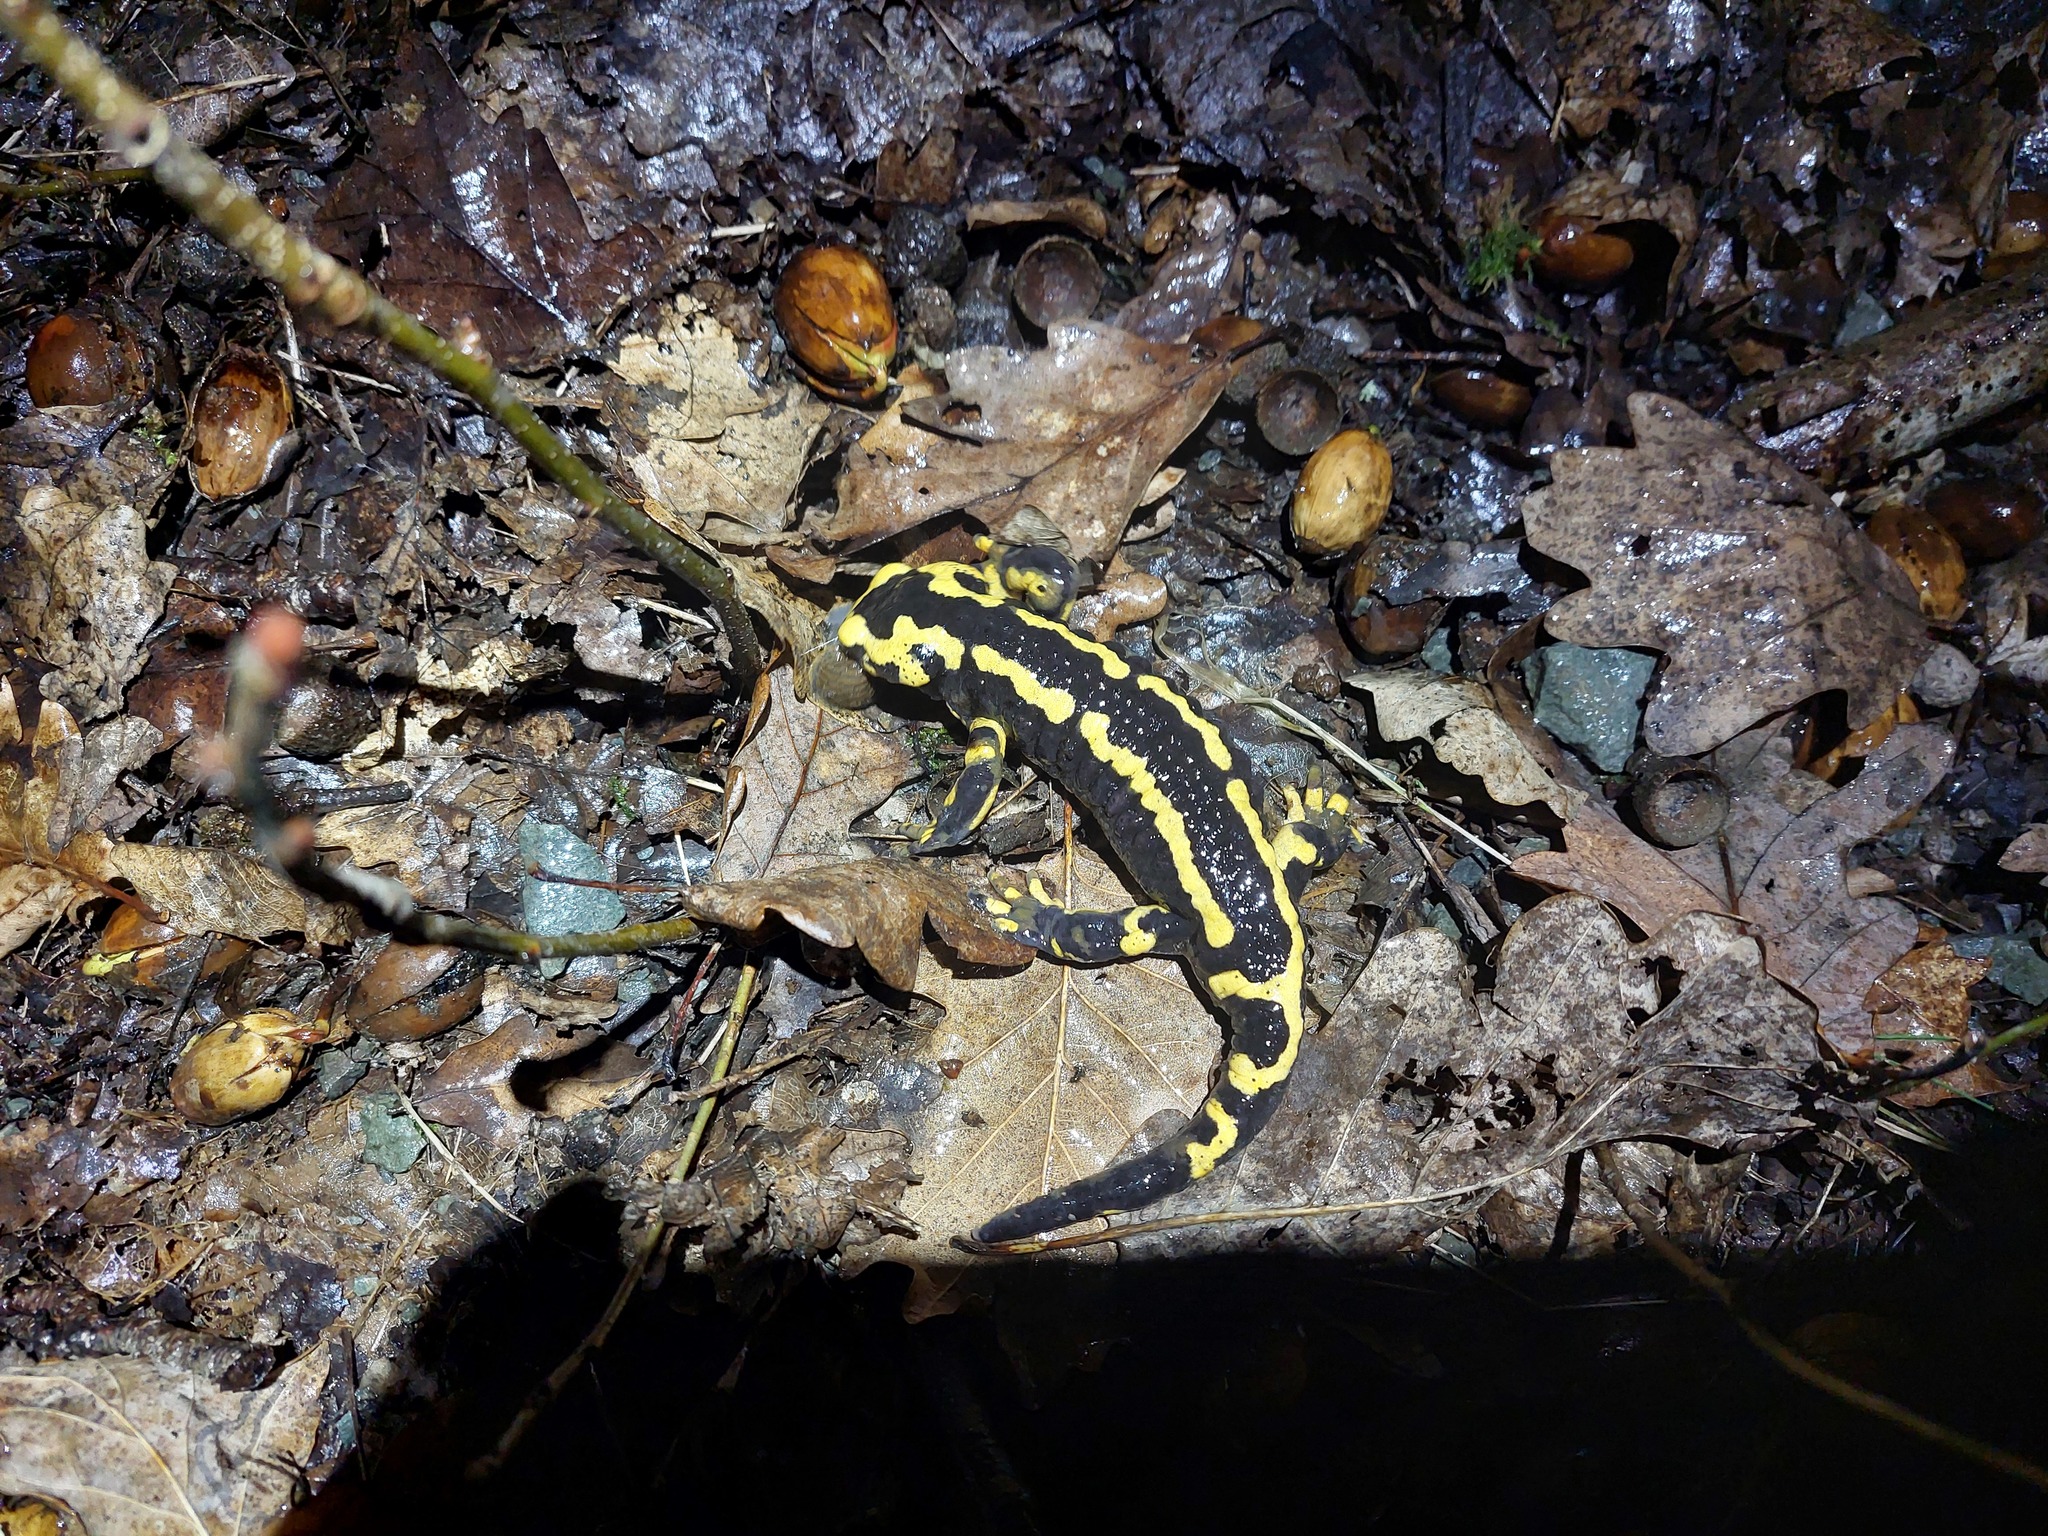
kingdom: Animalia
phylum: Chordata
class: Amphibia
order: Caudata
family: Salamandridae
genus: Salamandra
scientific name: Salamandra salamandra
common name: Fire salamander
